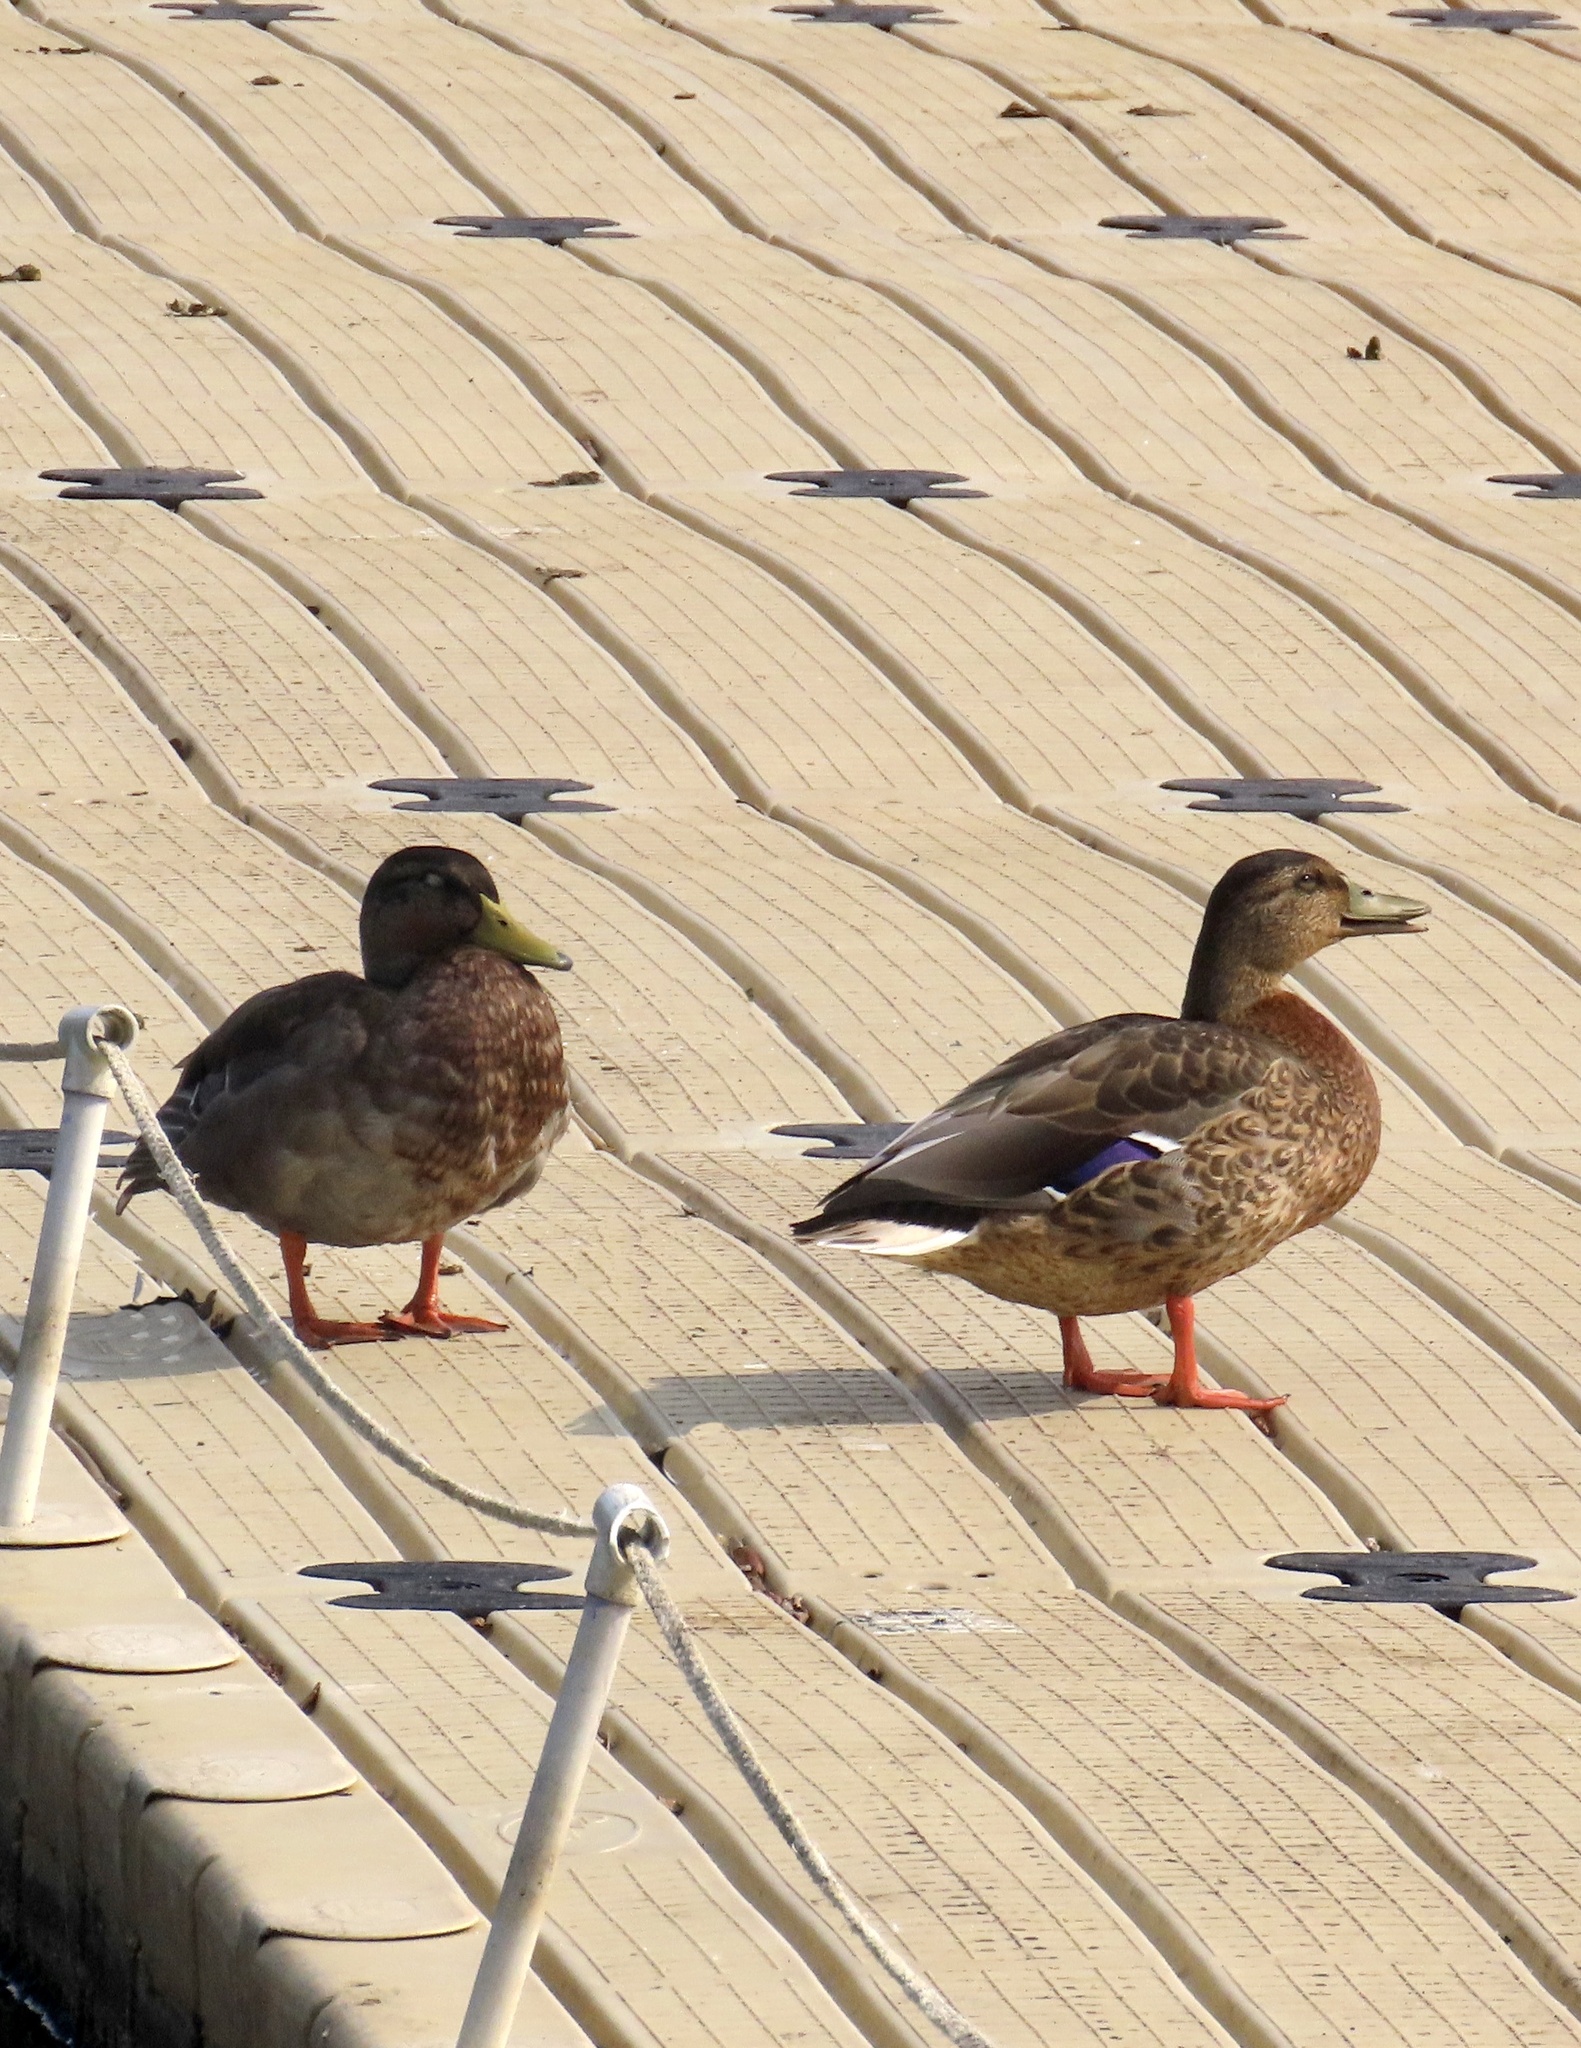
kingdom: Animalia
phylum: Chordata
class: Aves
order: Anseriformes
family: Anatidae
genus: Anas
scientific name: Anas platyrhynchos
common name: Mallard
